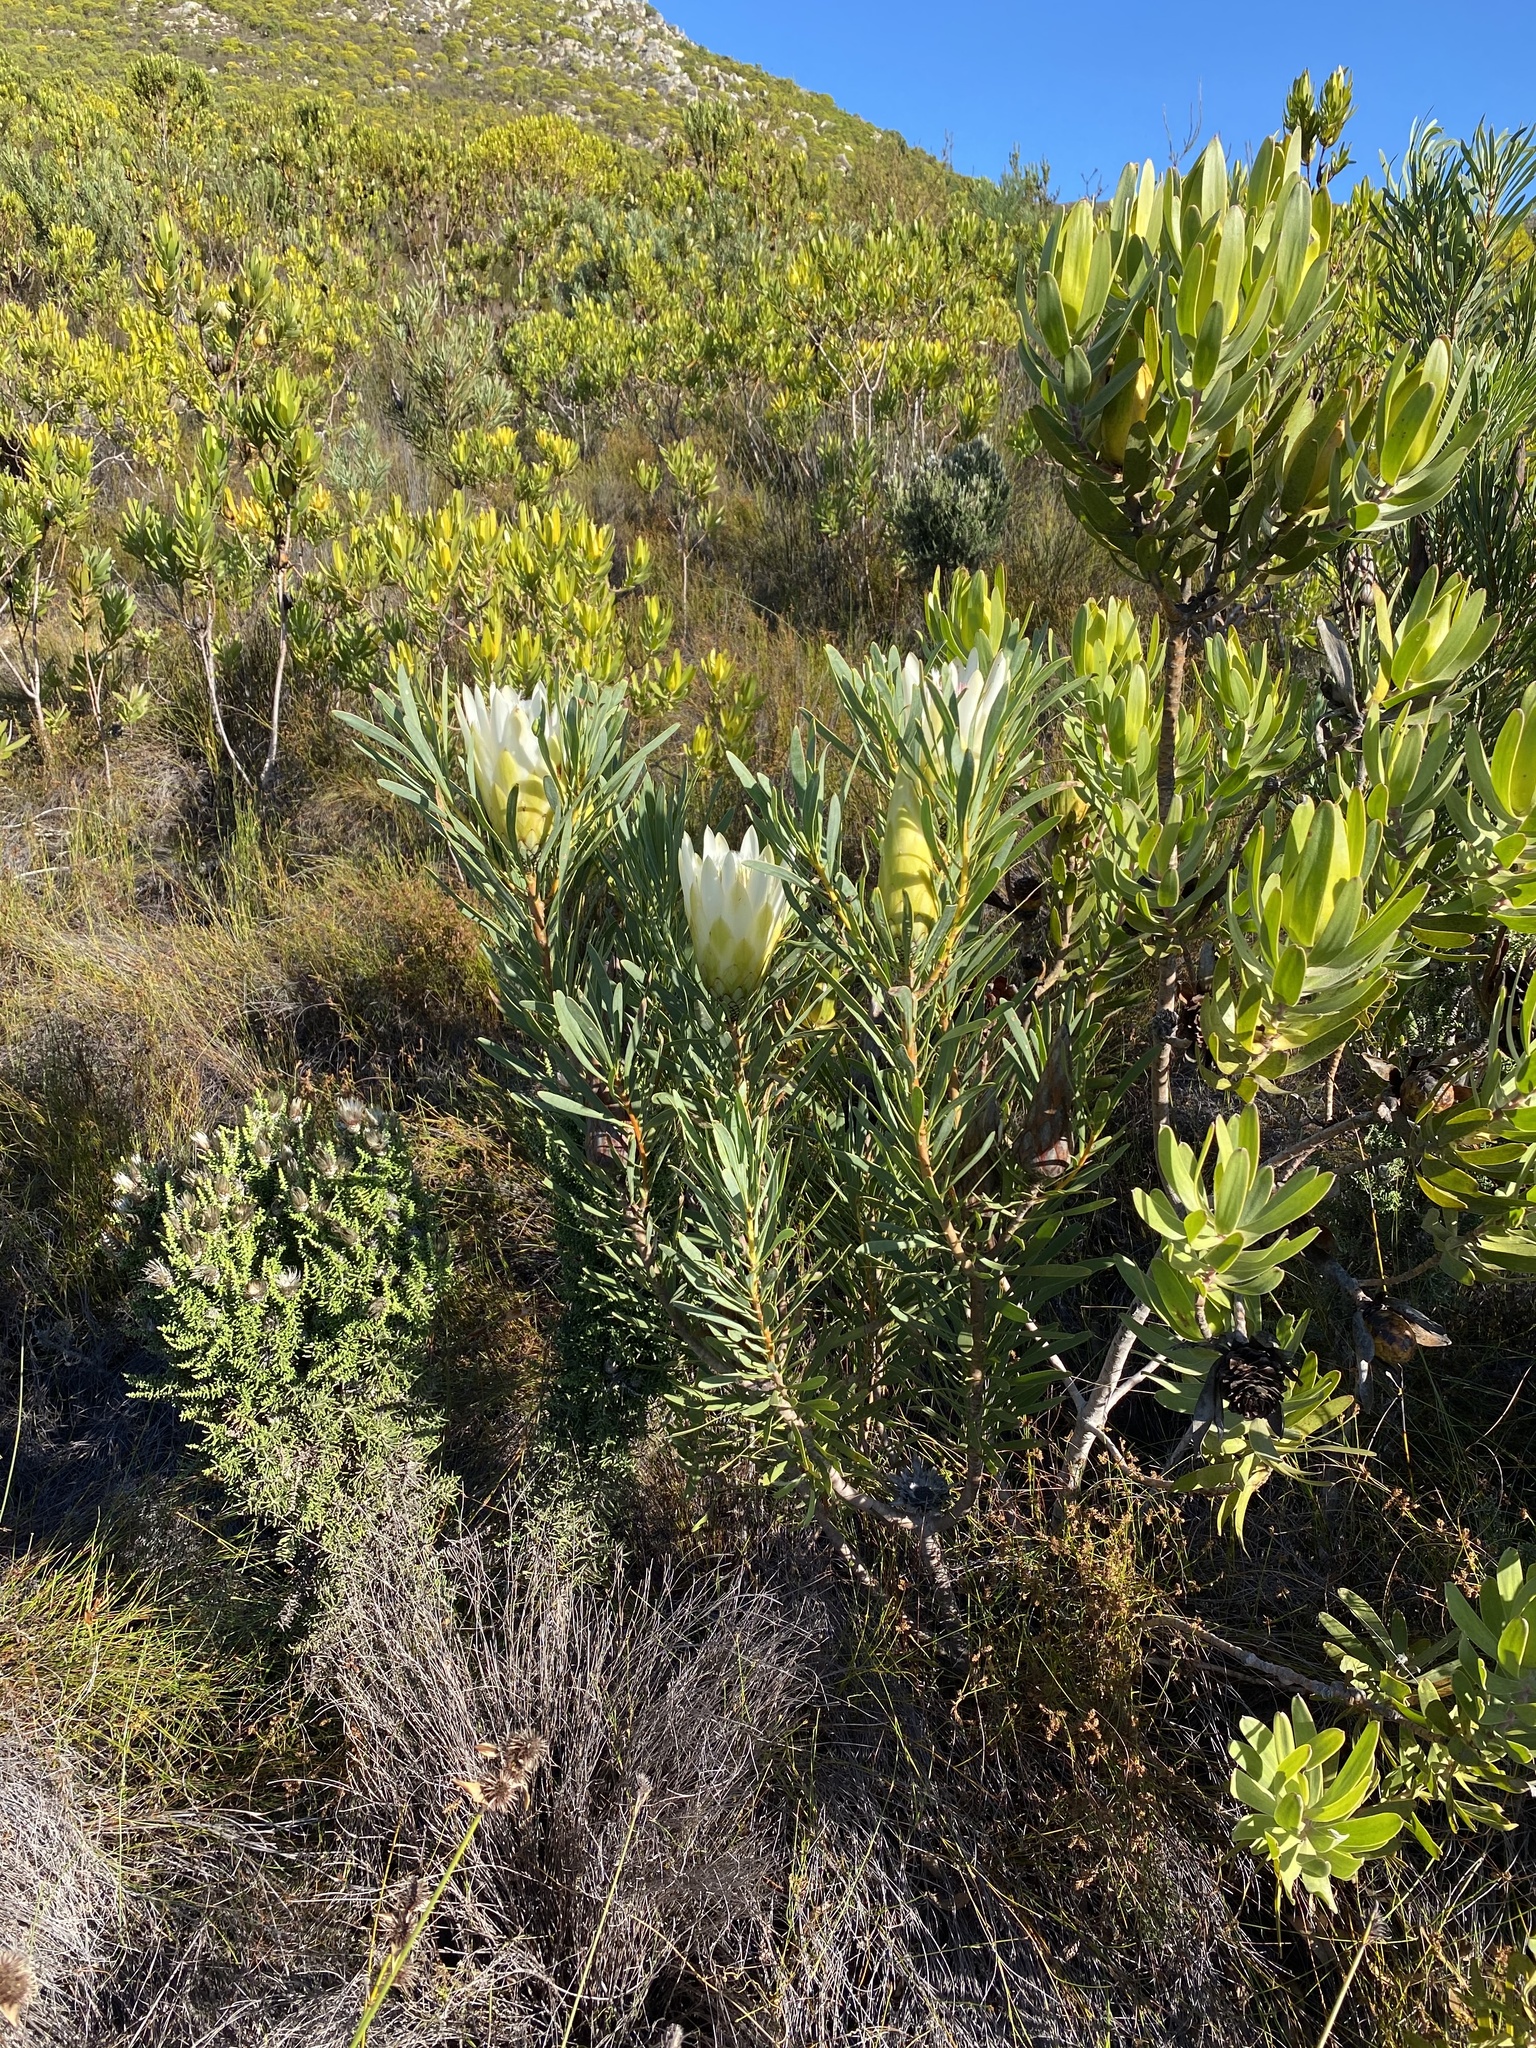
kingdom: Plantae
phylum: Tracheophyta
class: Magnoliopsida
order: Proteales
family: Proteaceae
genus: Protea
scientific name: Protea repens
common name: Sugarbush
